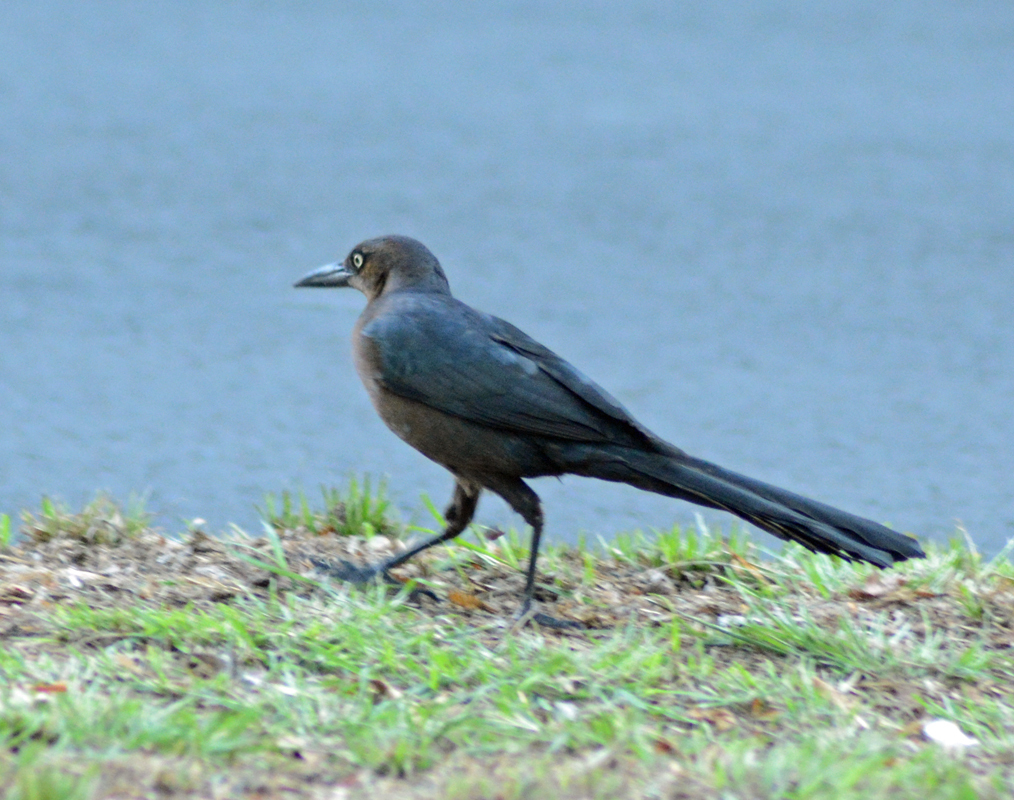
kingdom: Animalia
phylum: Chordata
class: Aves
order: Passeriformes
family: Icteridae
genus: Quiscalus
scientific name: Quiscalus mexicanus
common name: Great-tailed grackle
